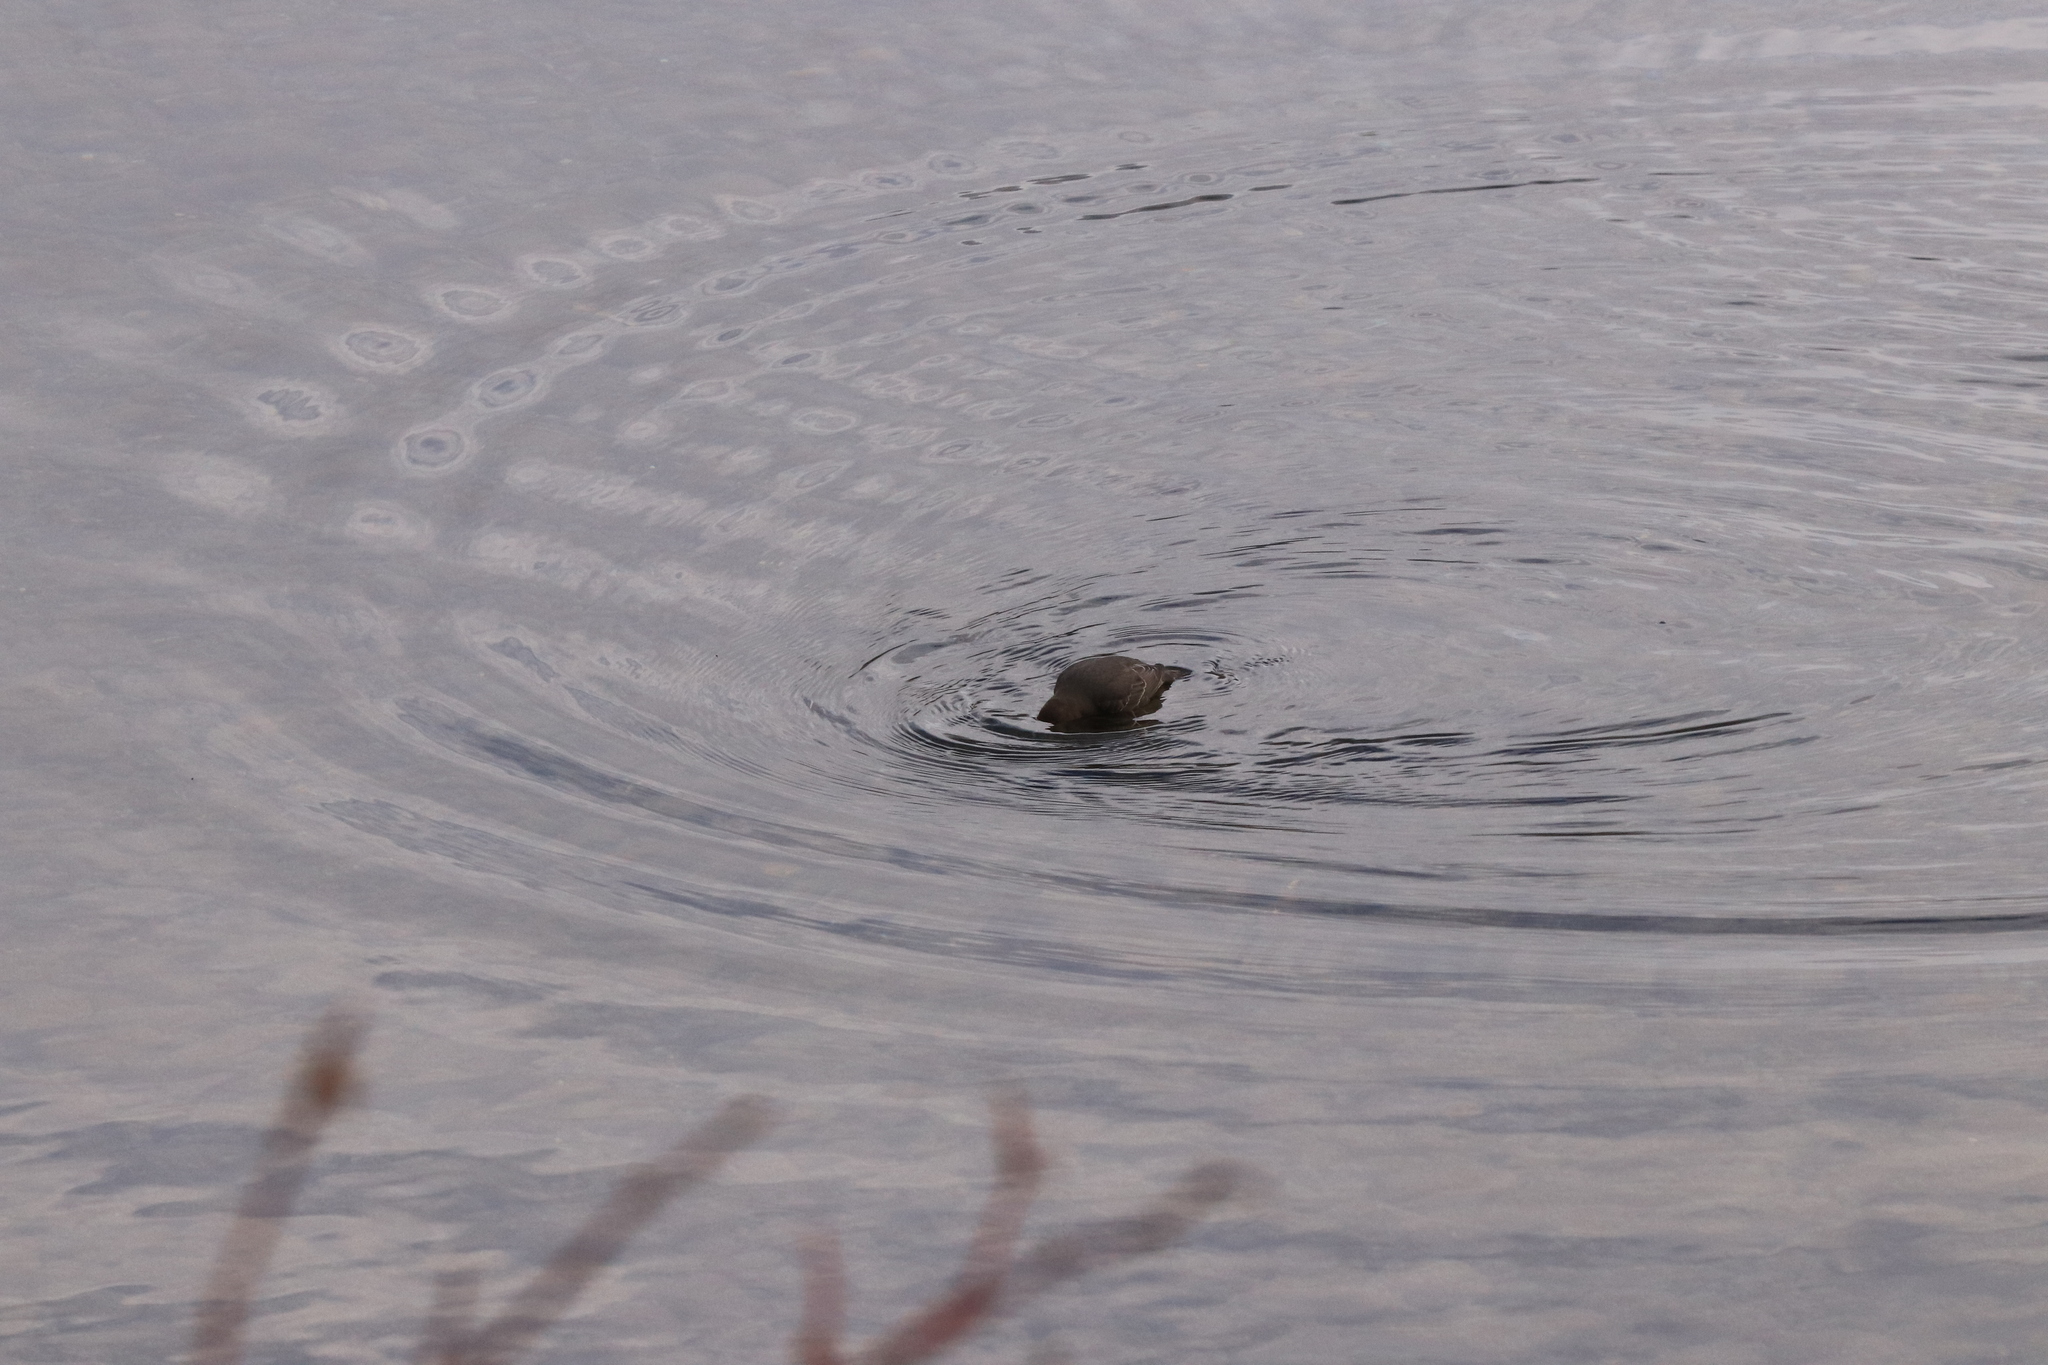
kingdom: Animalia
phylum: Chordata
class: Aves
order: Passeriformes
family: Cinclidae
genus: Cinclus
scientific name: Cinclus mexicanus
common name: American dipper
